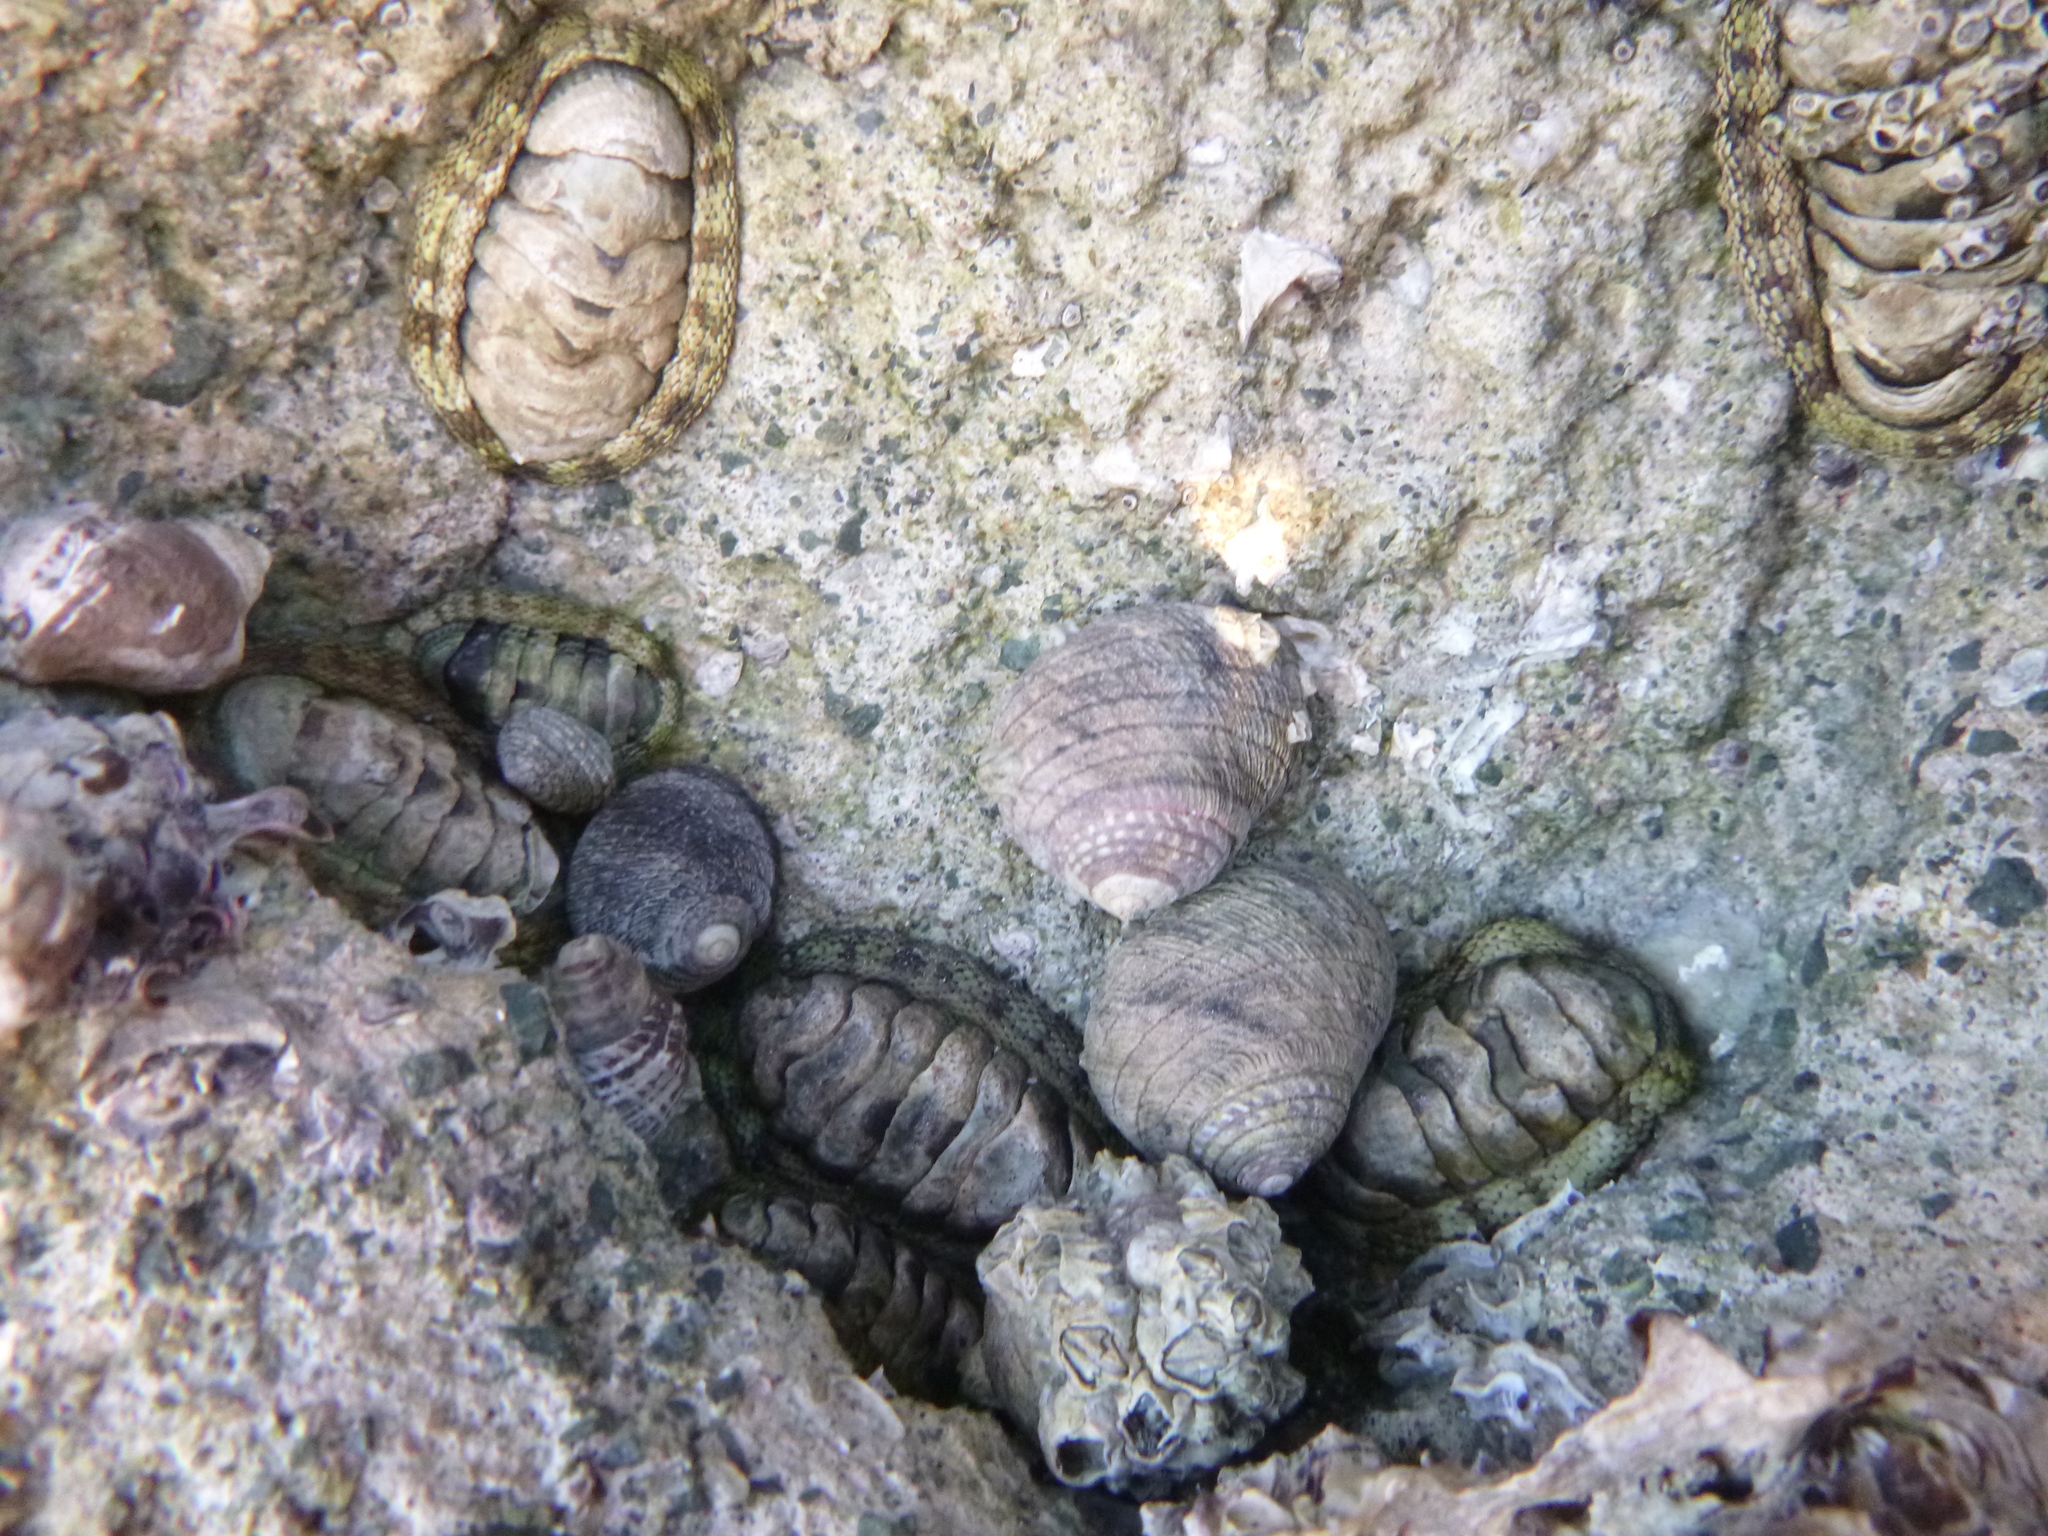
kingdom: Animalia
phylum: Mollusca
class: Gastropoda
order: Trochida
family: Trochidae
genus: Diloma
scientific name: Diloma aethiops
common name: Scorched monodont
